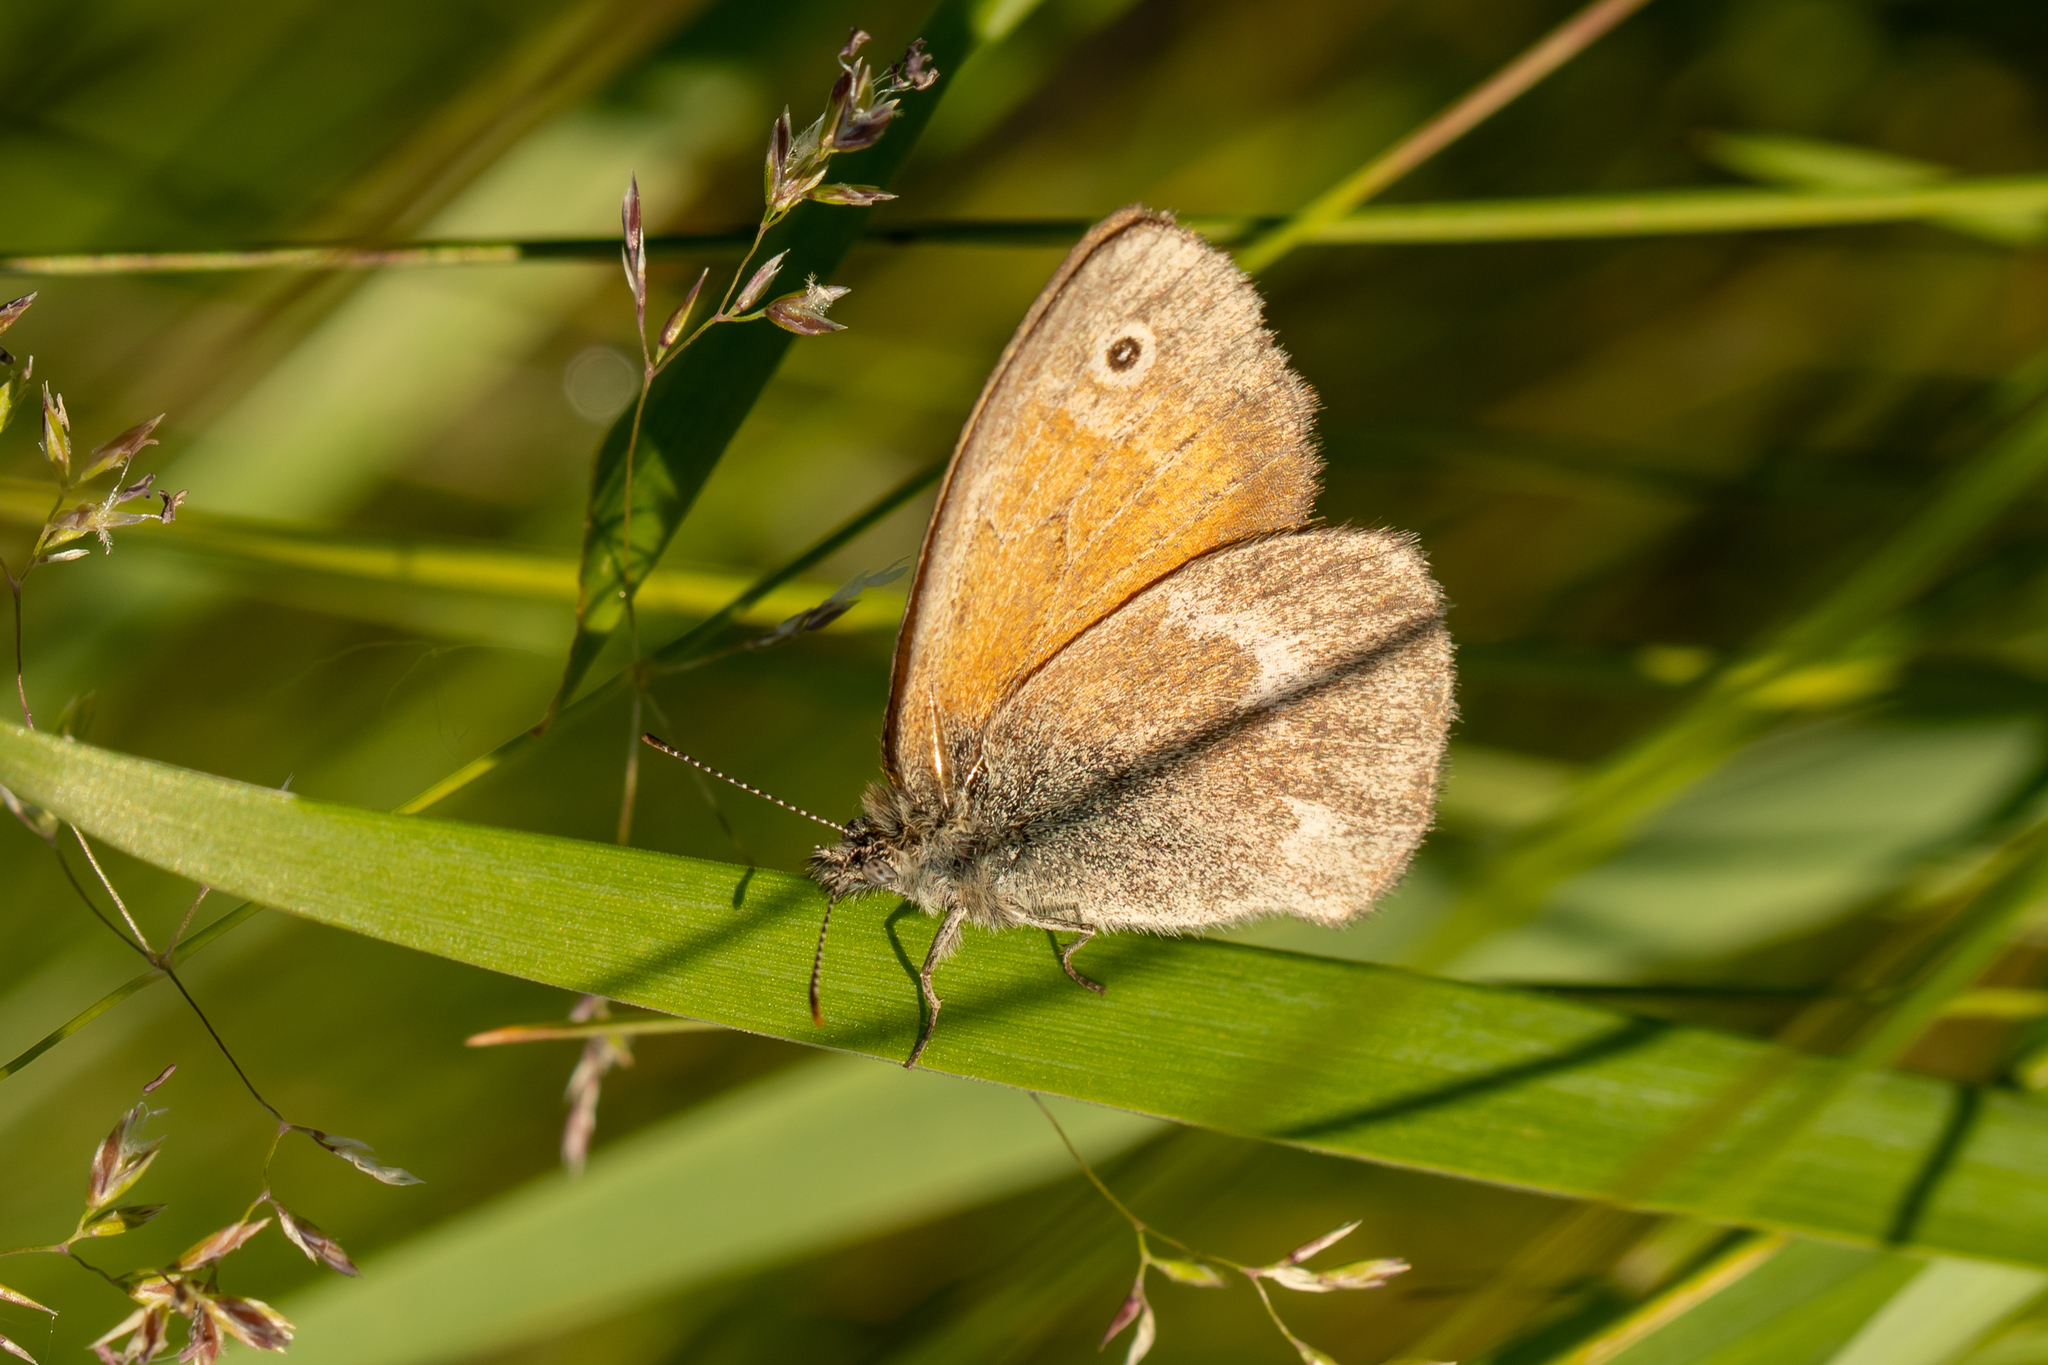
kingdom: Animalia
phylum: Arthropoda
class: Insecta
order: Lepidoptera
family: Nymphalidae
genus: Coenonympha
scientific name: Coenonympha california
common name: Common ringlet
